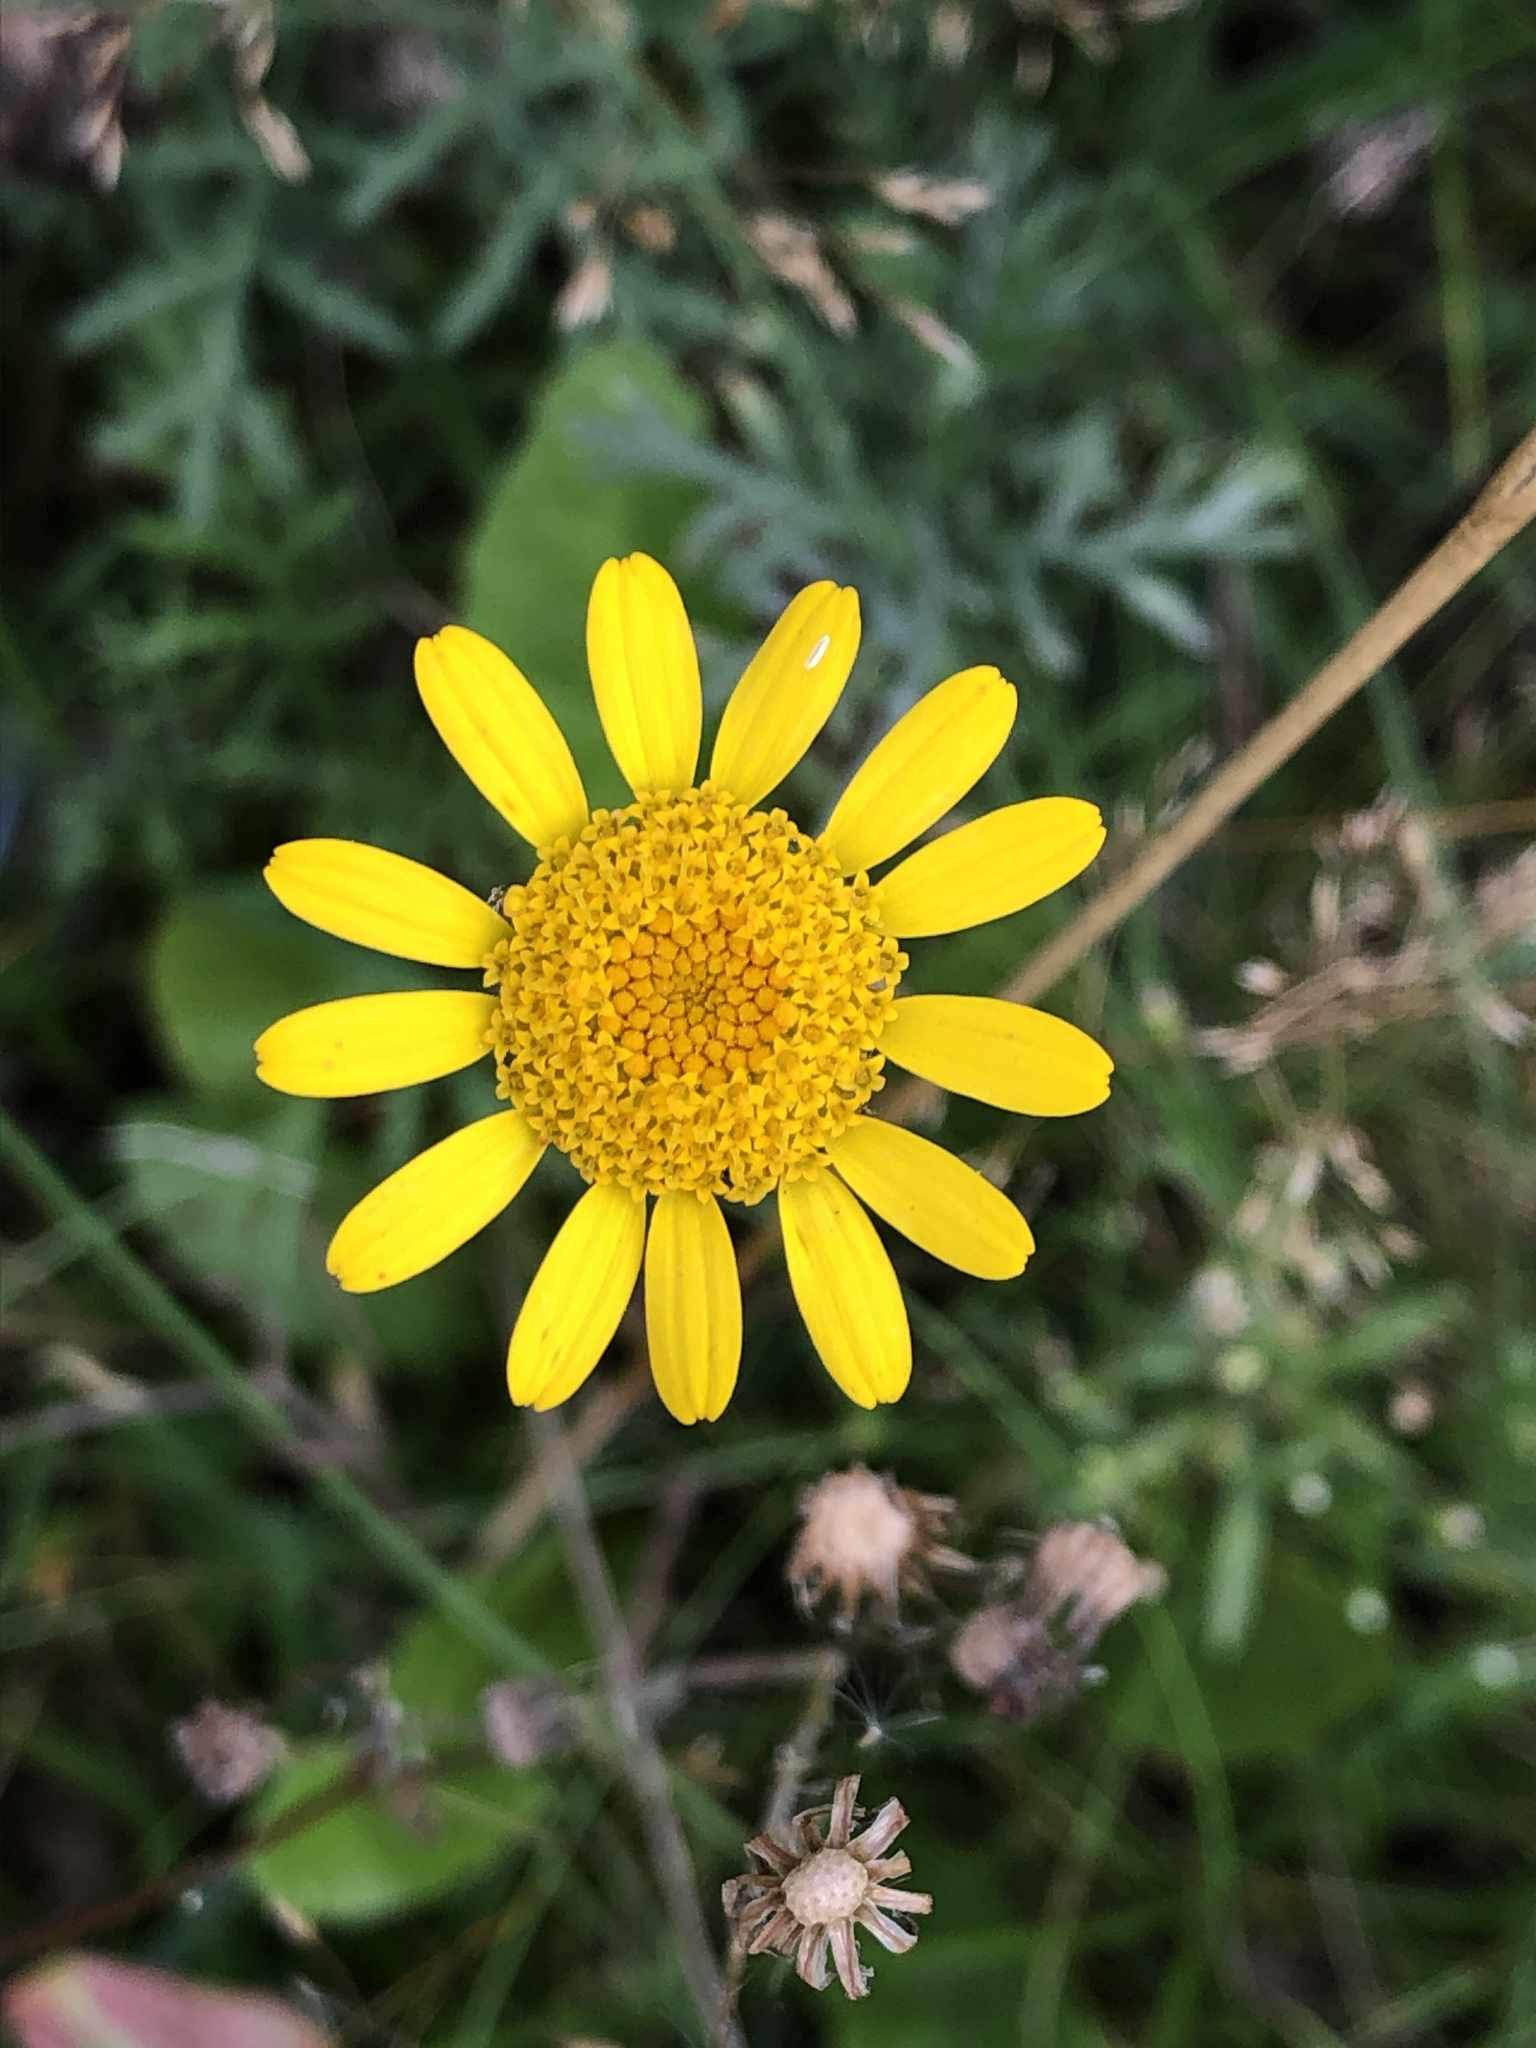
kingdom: Plantae
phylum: Tracheophyta
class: Magnoliopsida
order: Asterales
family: Asteraceae
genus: Cota
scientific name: Cota tinctoria
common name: Golden chamomile
